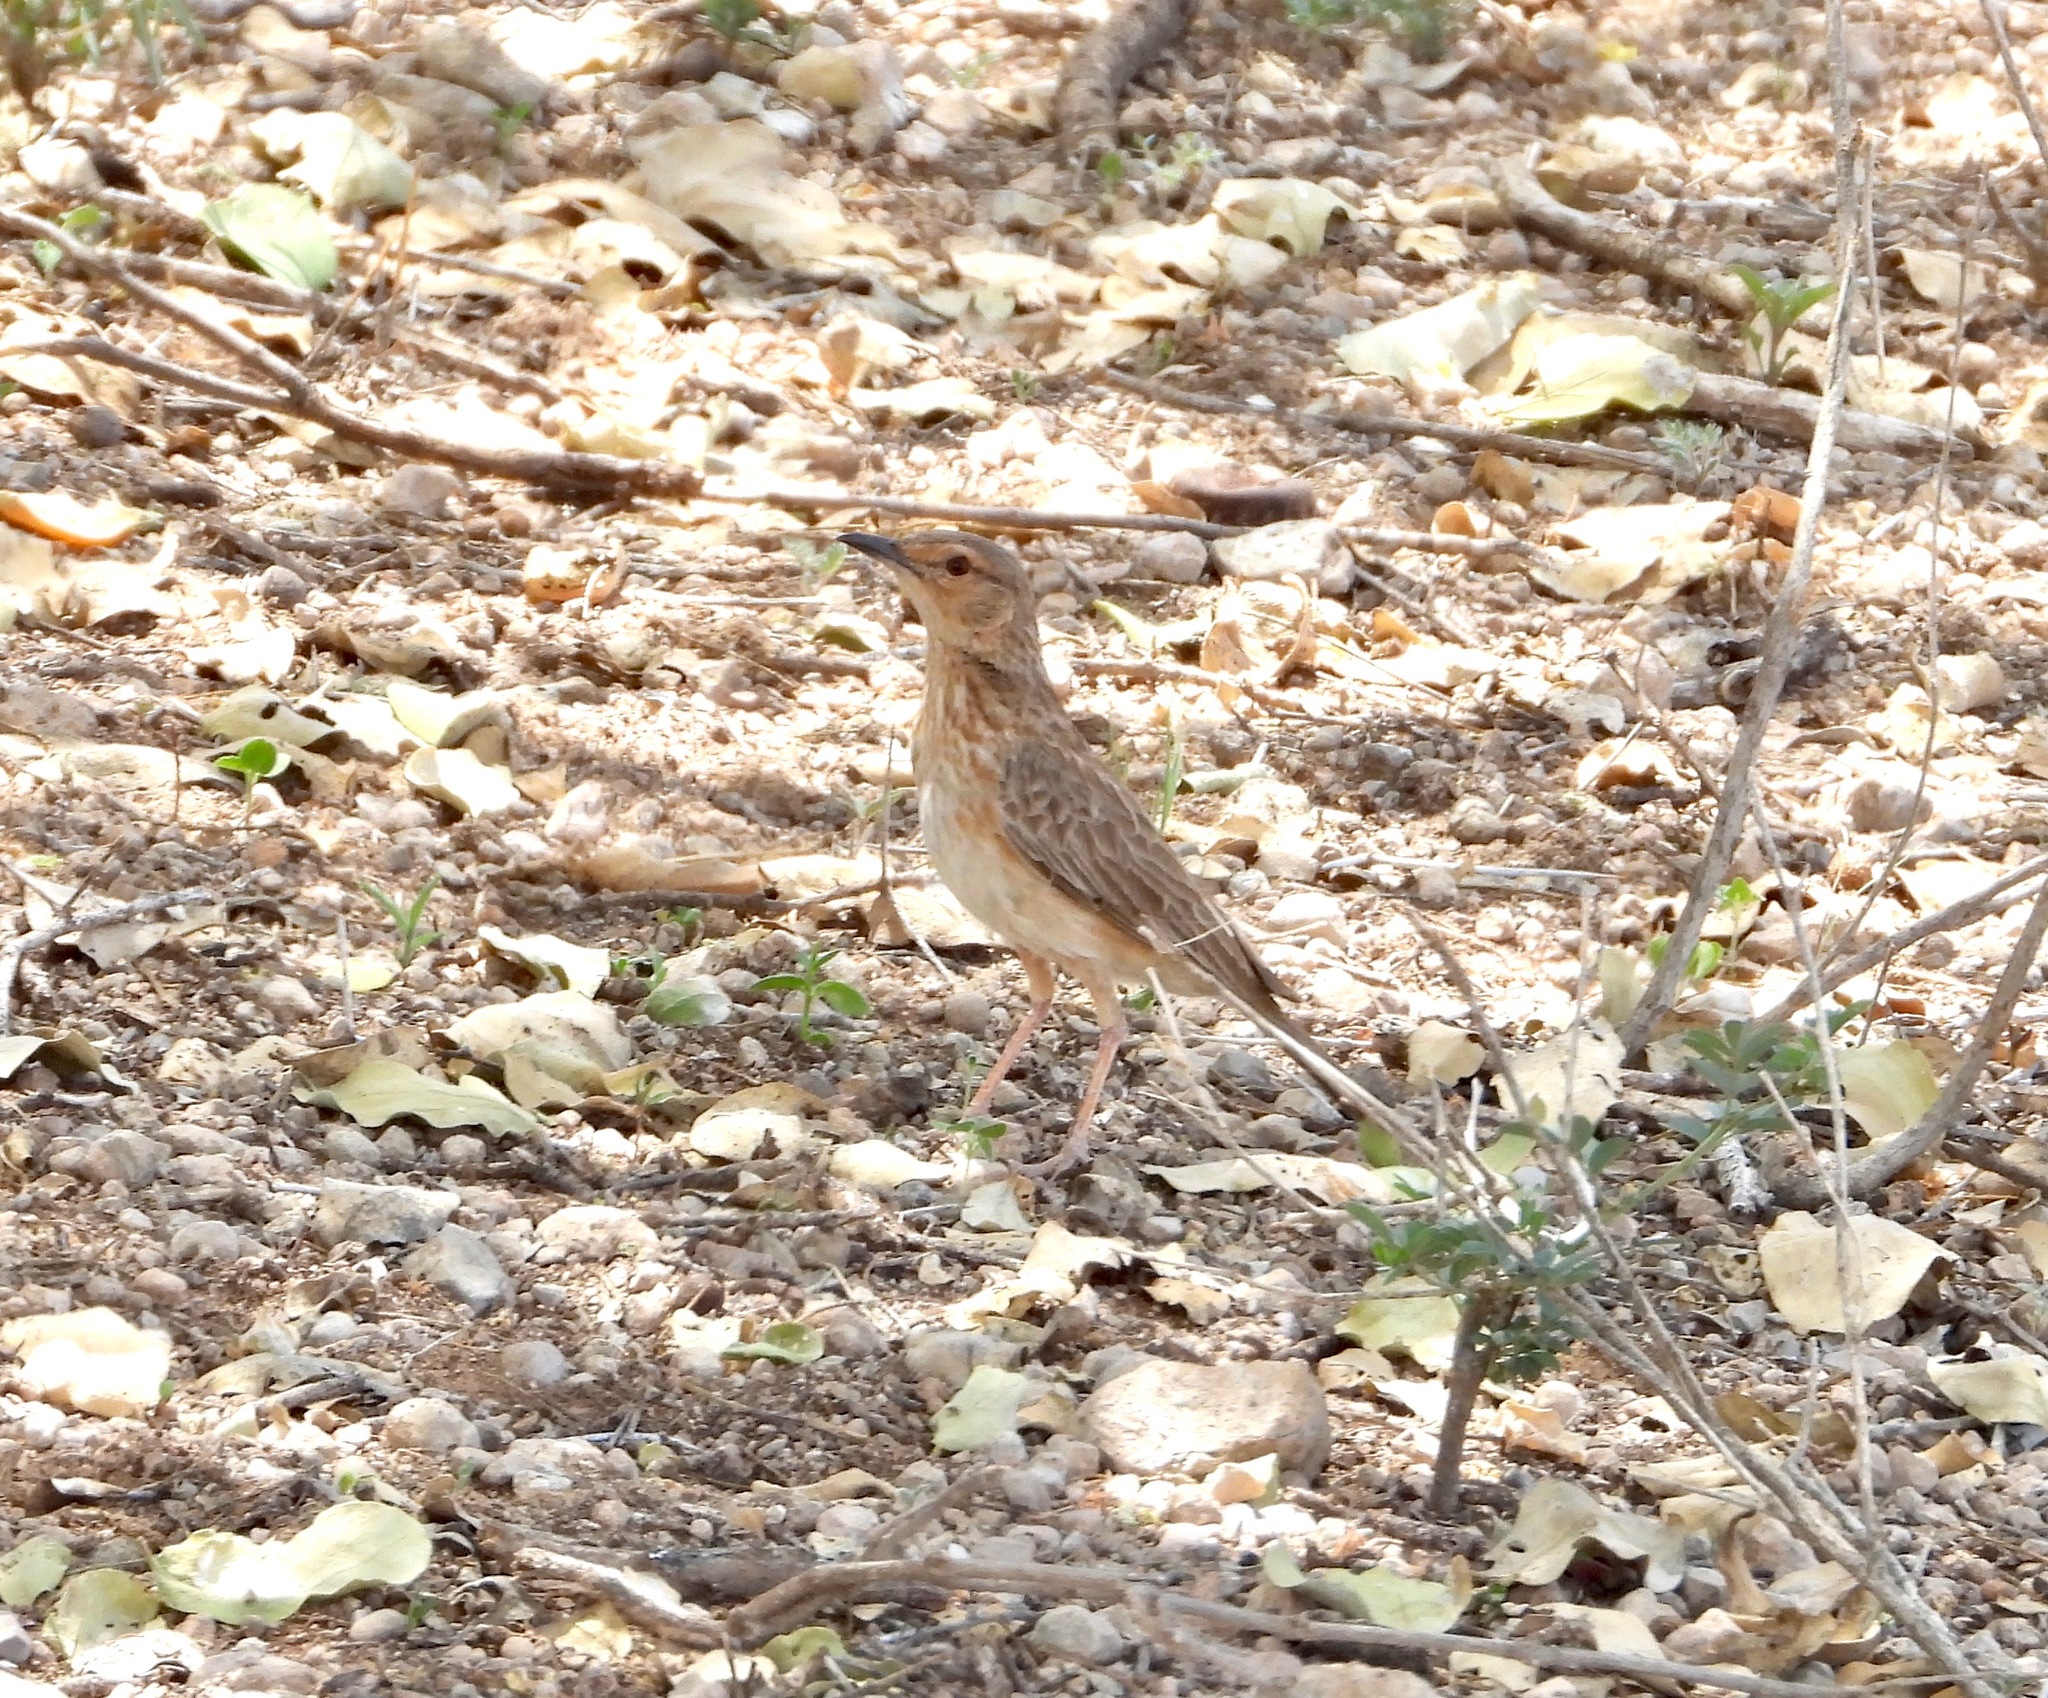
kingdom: Animalia
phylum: Chordata
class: Aves
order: Passeriformes
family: Alaudidae
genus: Calendulauda
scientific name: Calendulauda poecilosterna
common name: Pink-breasted lark
